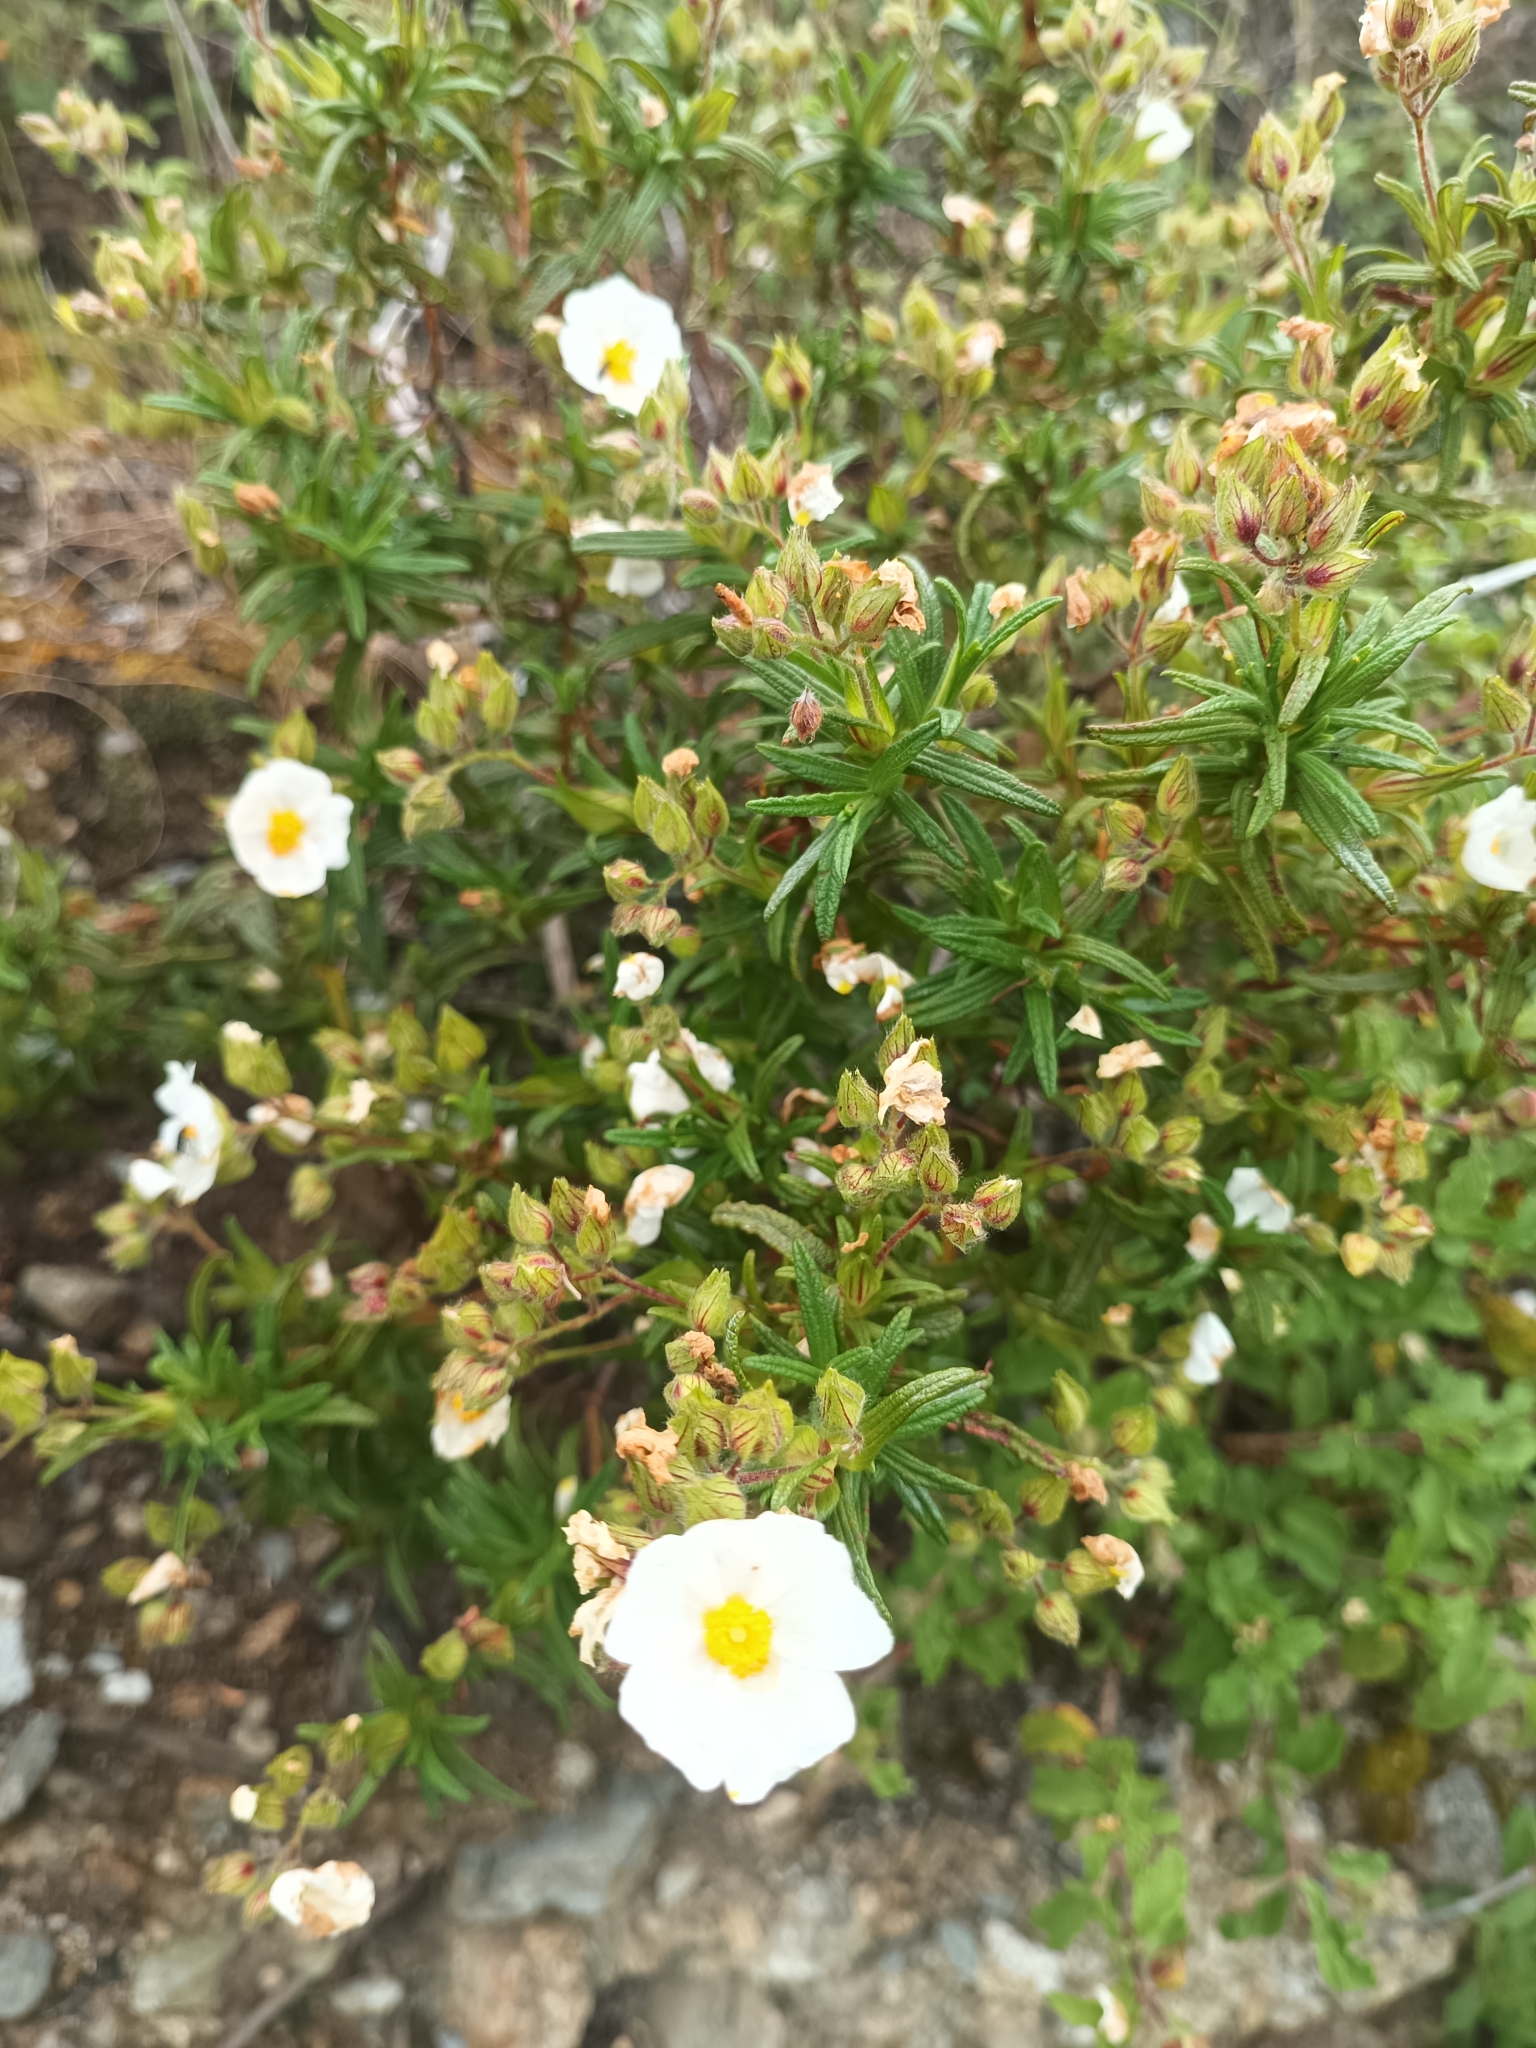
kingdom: Plantae
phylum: Tracheophyta
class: Magnoliopsida
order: Malvales
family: Cistaceae
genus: Cistus
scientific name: Cistus monspeliensis
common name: Montpelier cistus
